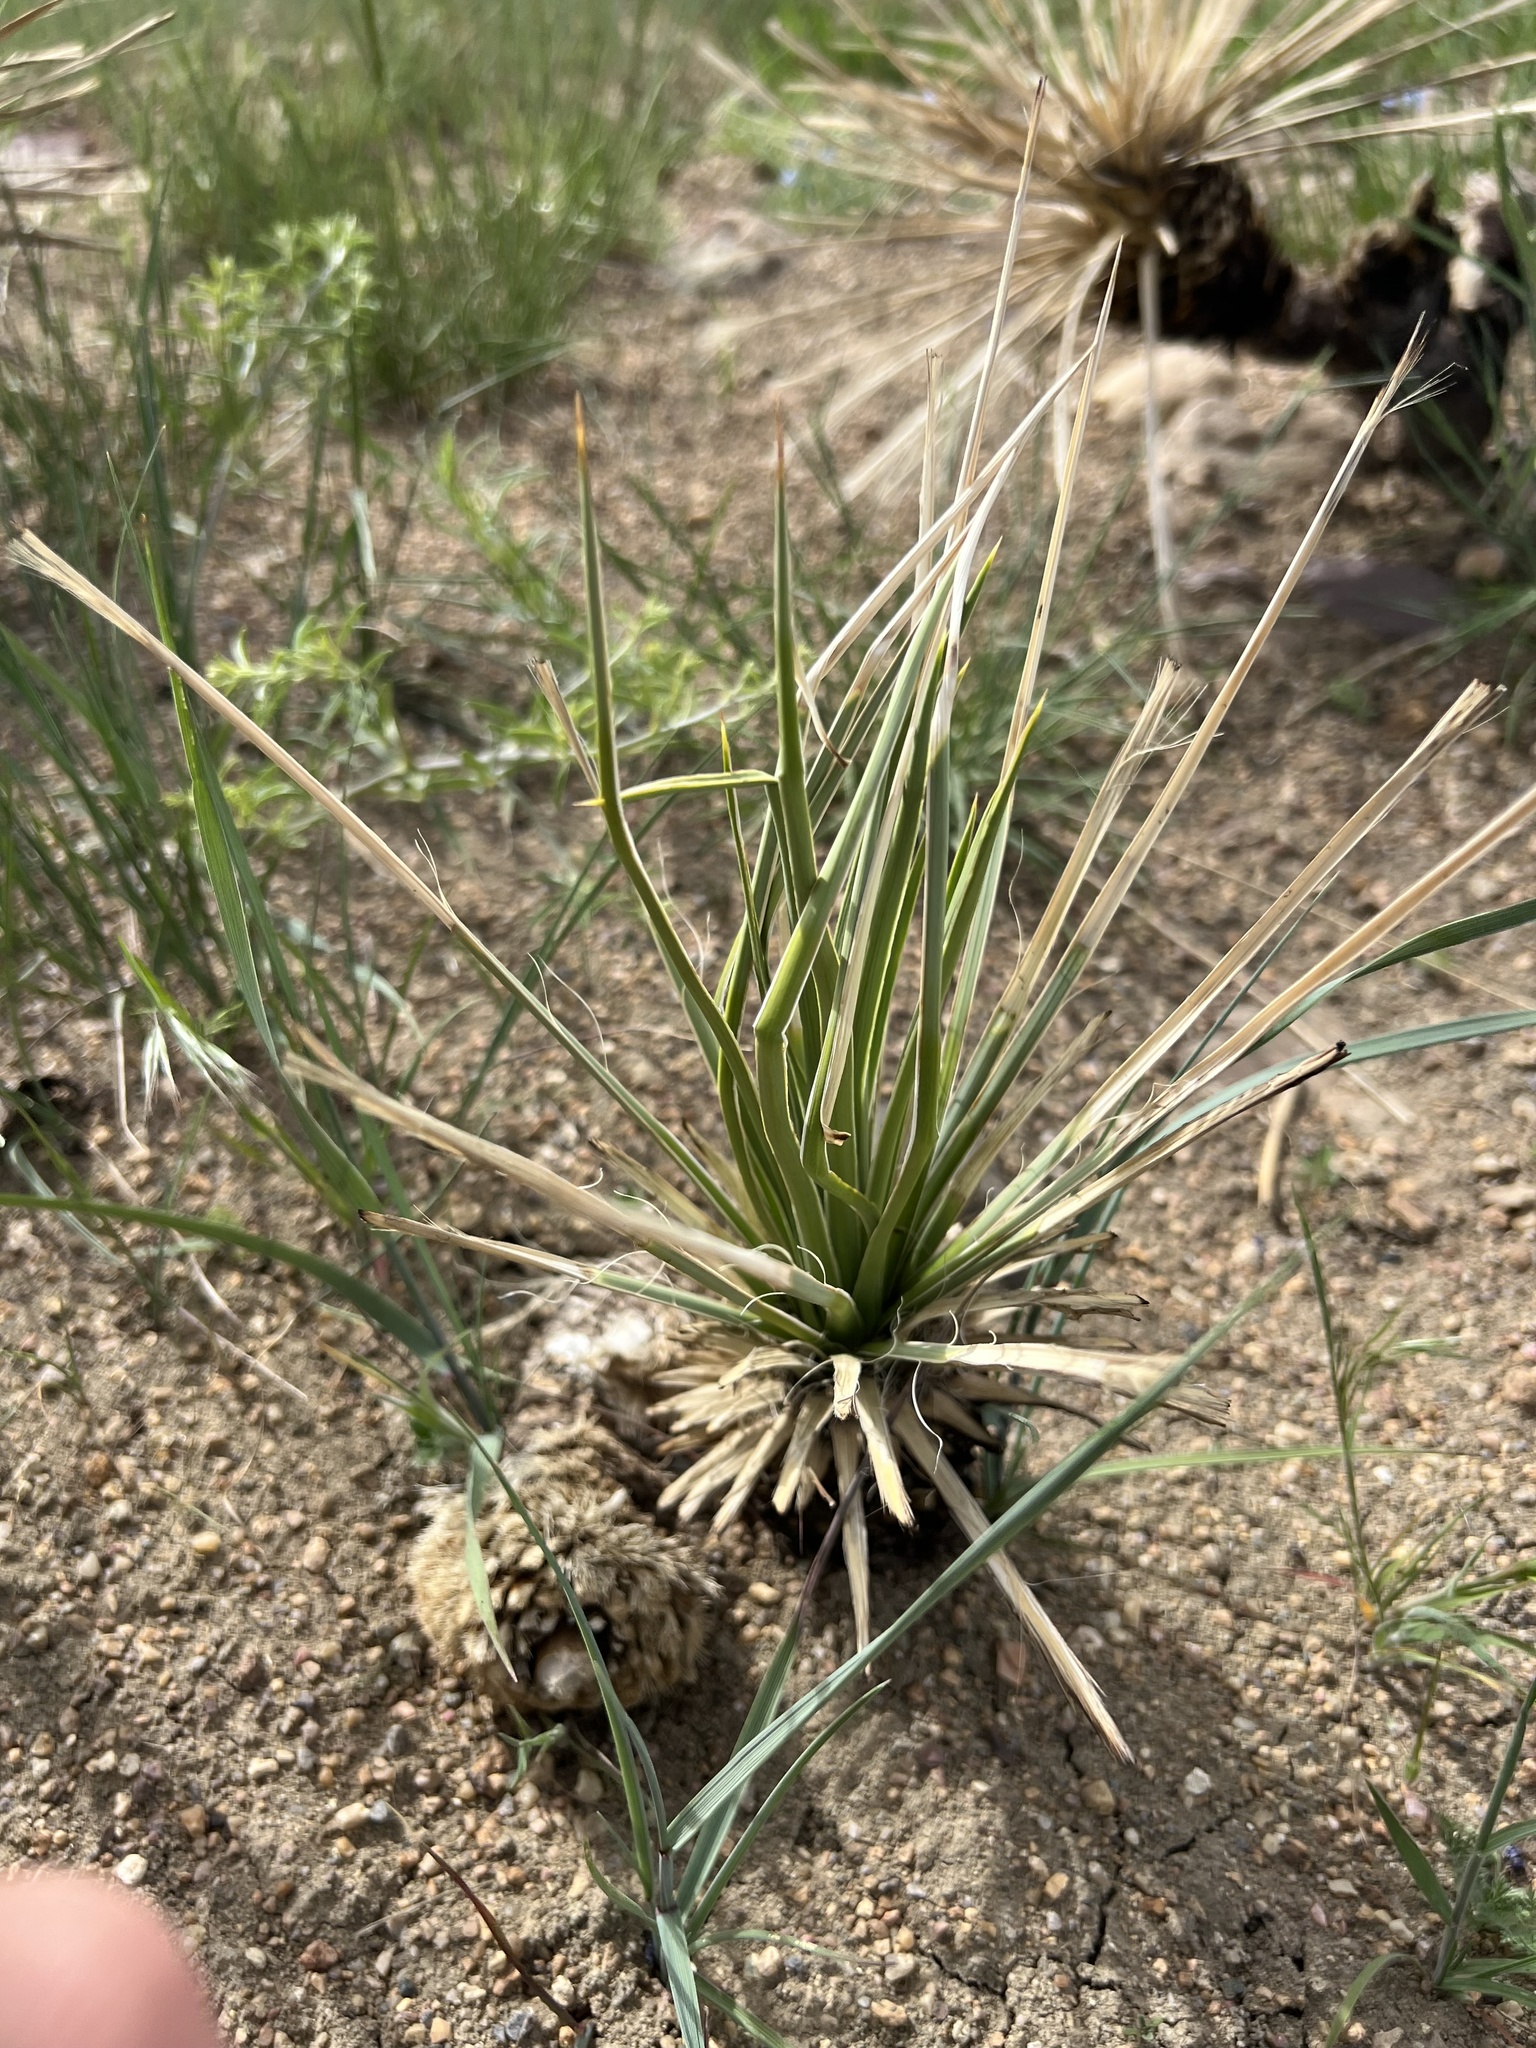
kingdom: Plantae
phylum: Tracheophyta
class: Liliopsida
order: Asparagales
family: Asparagaceae
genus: Yucca
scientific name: Yucca glauca
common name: Great plains yucca
